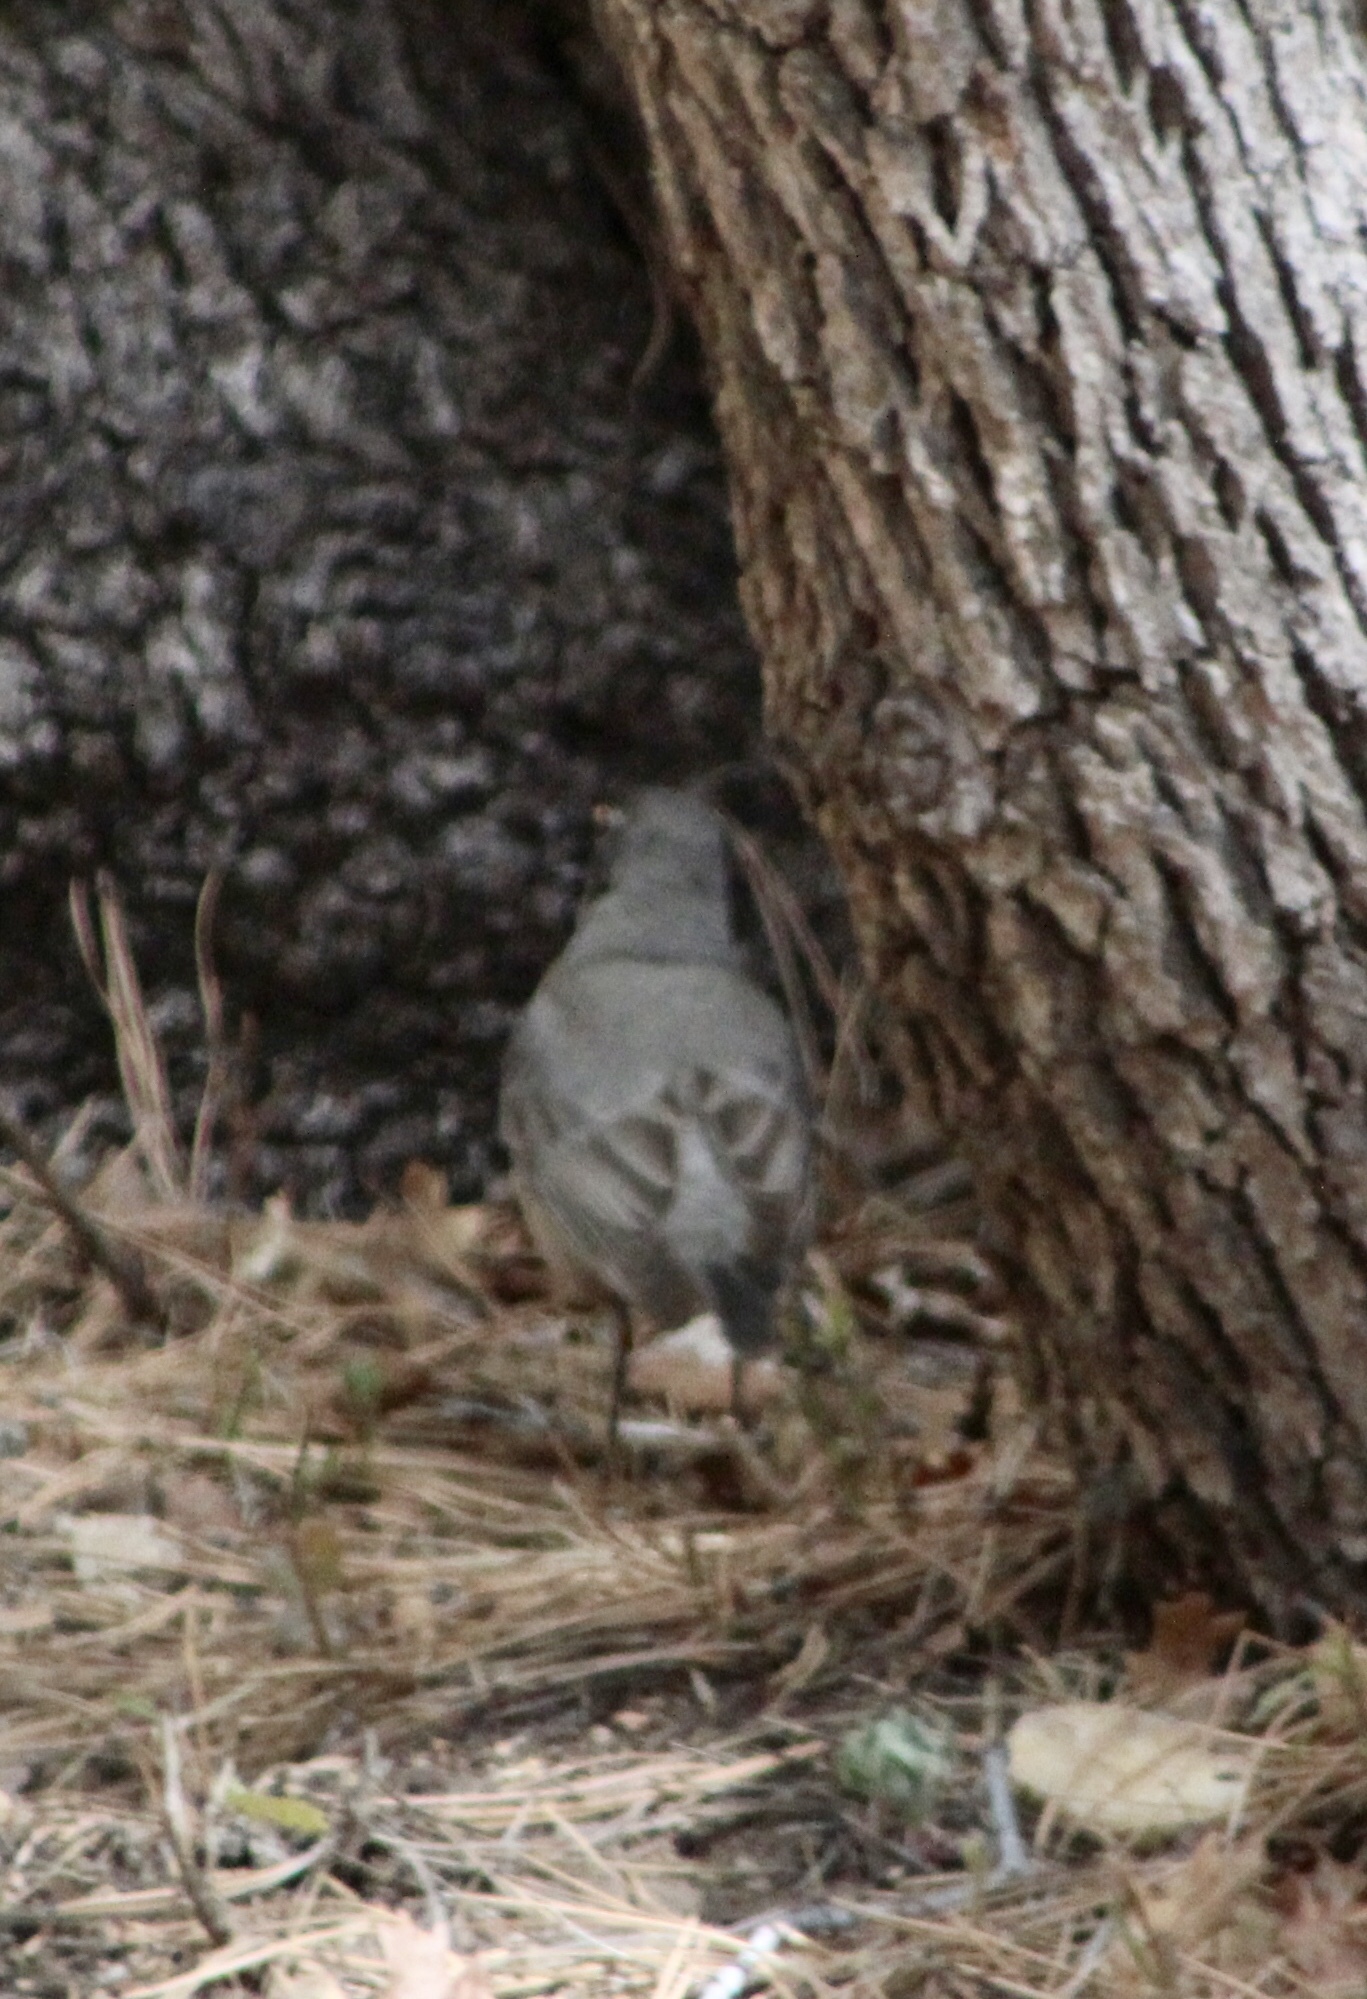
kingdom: Animalia
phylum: Chordata
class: Aves
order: Passeriformes
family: Turdidae
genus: Turdus
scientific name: Turdus migratorius
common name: American robin
